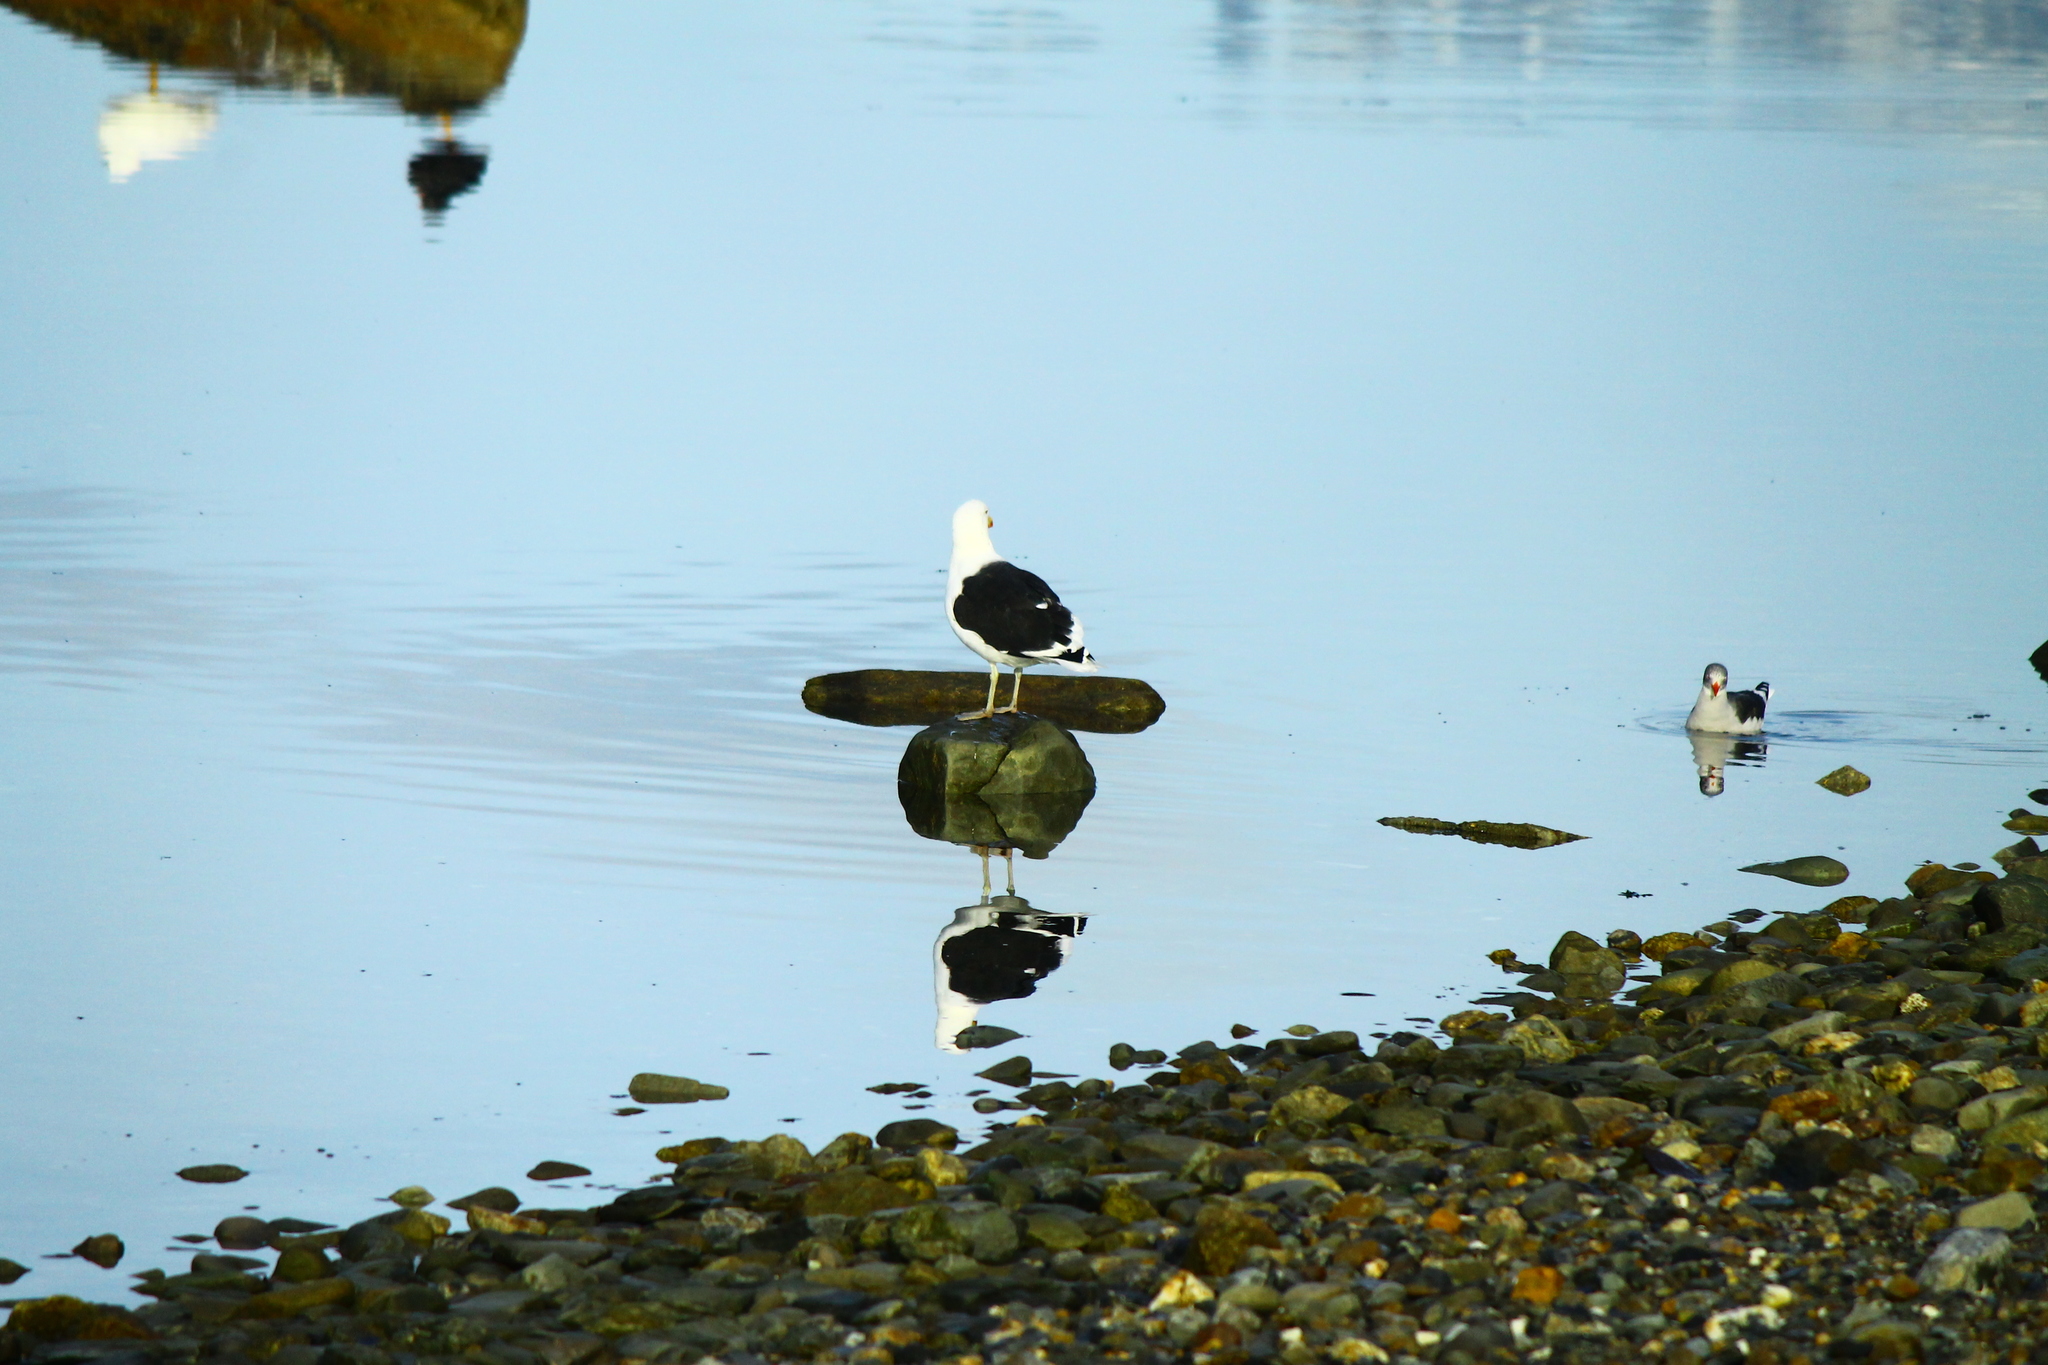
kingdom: Animalia
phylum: Chordata
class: Aves
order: Charadriiformes
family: Laridae
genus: Larus
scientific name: Larus dominicanus
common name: Kelp gull
